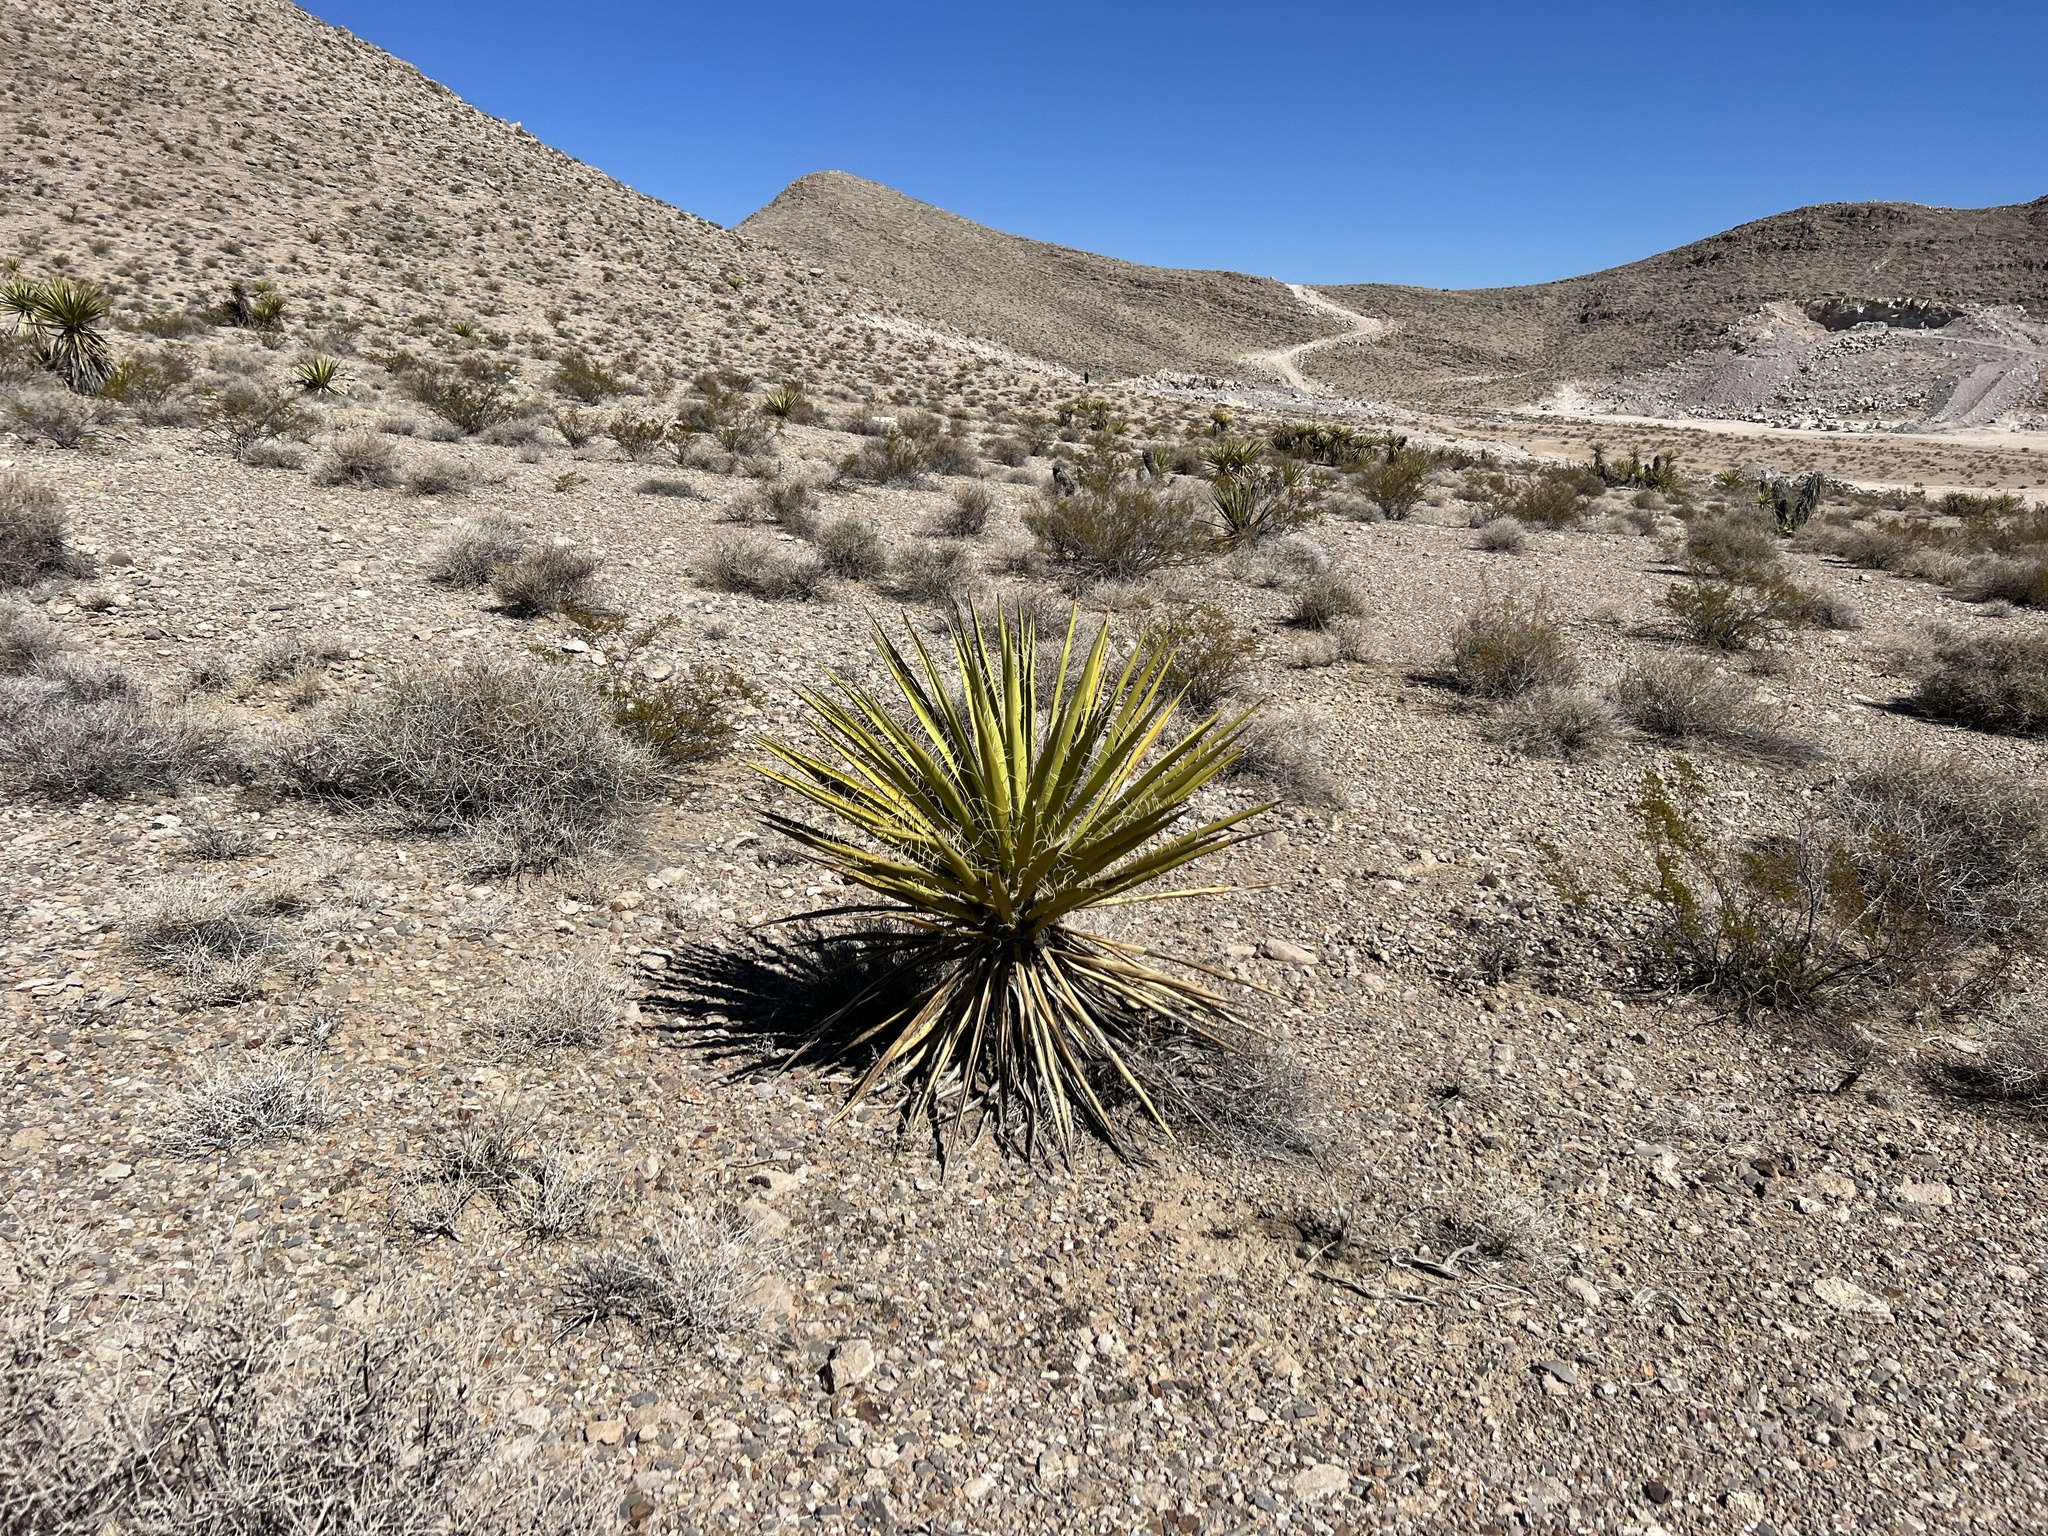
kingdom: Plantae
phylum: Tracheophyta
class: Liliopsida
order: Asparagales
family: Asparagaceae
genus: Yucca
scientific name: Yucca schidigera
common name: Mojave yucca
